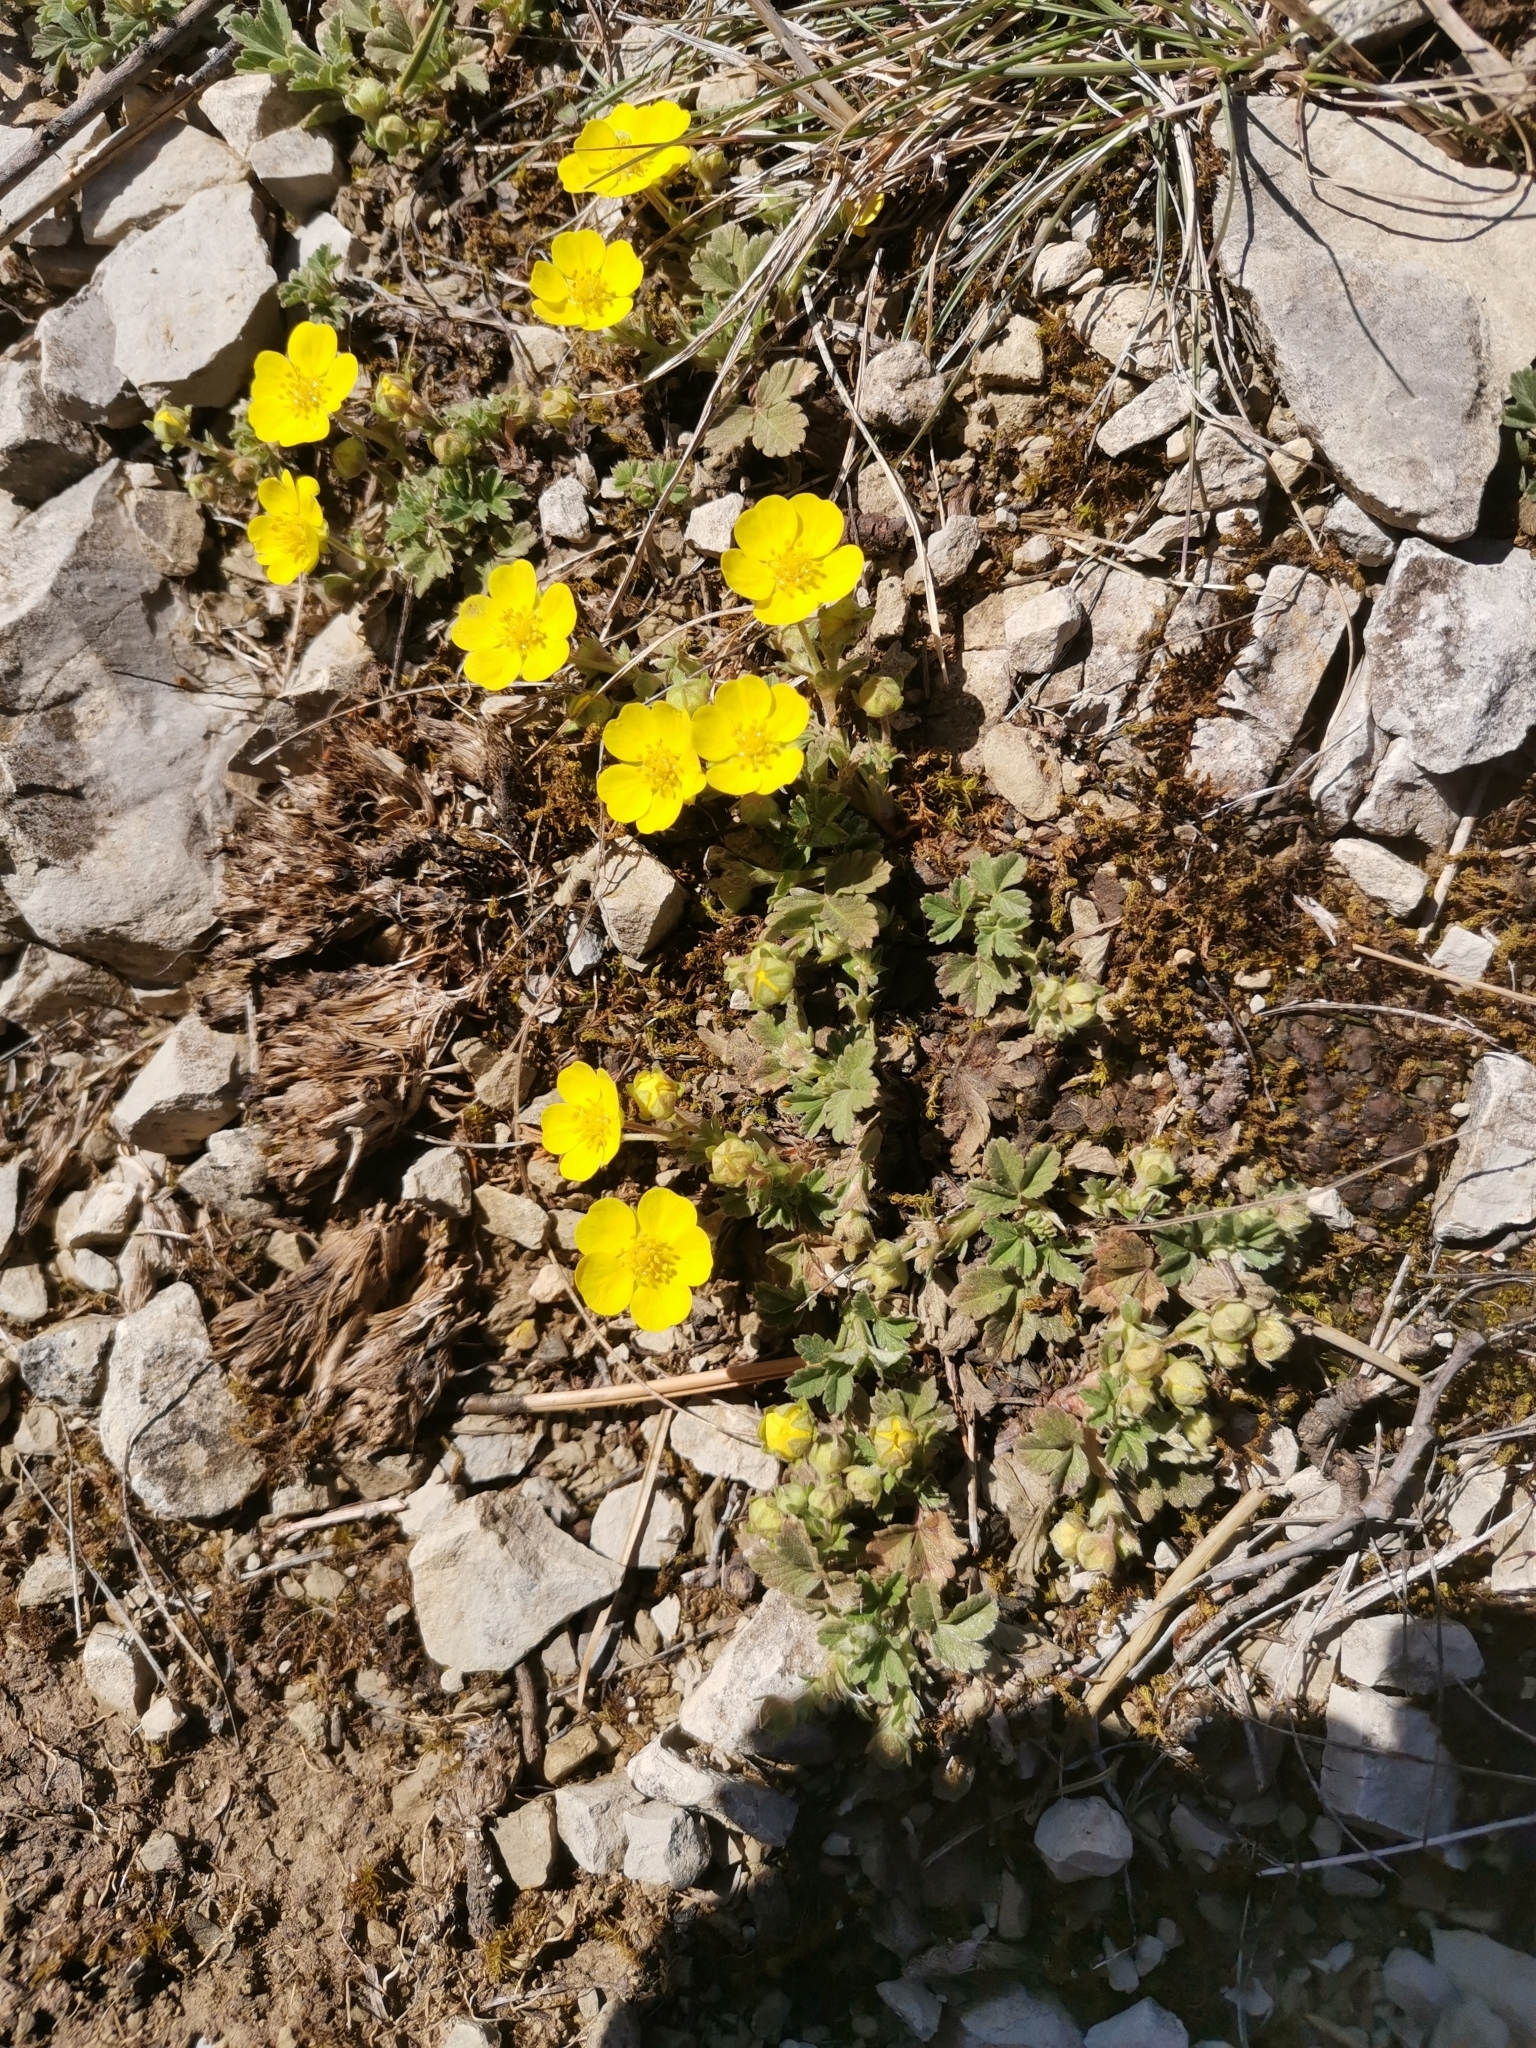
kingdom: Plantae
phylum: Tracheophyta
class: Magnoliopsida
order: Rosales
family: Rosaceae
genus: Potentilla
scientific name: Potentilla tommasiniana
